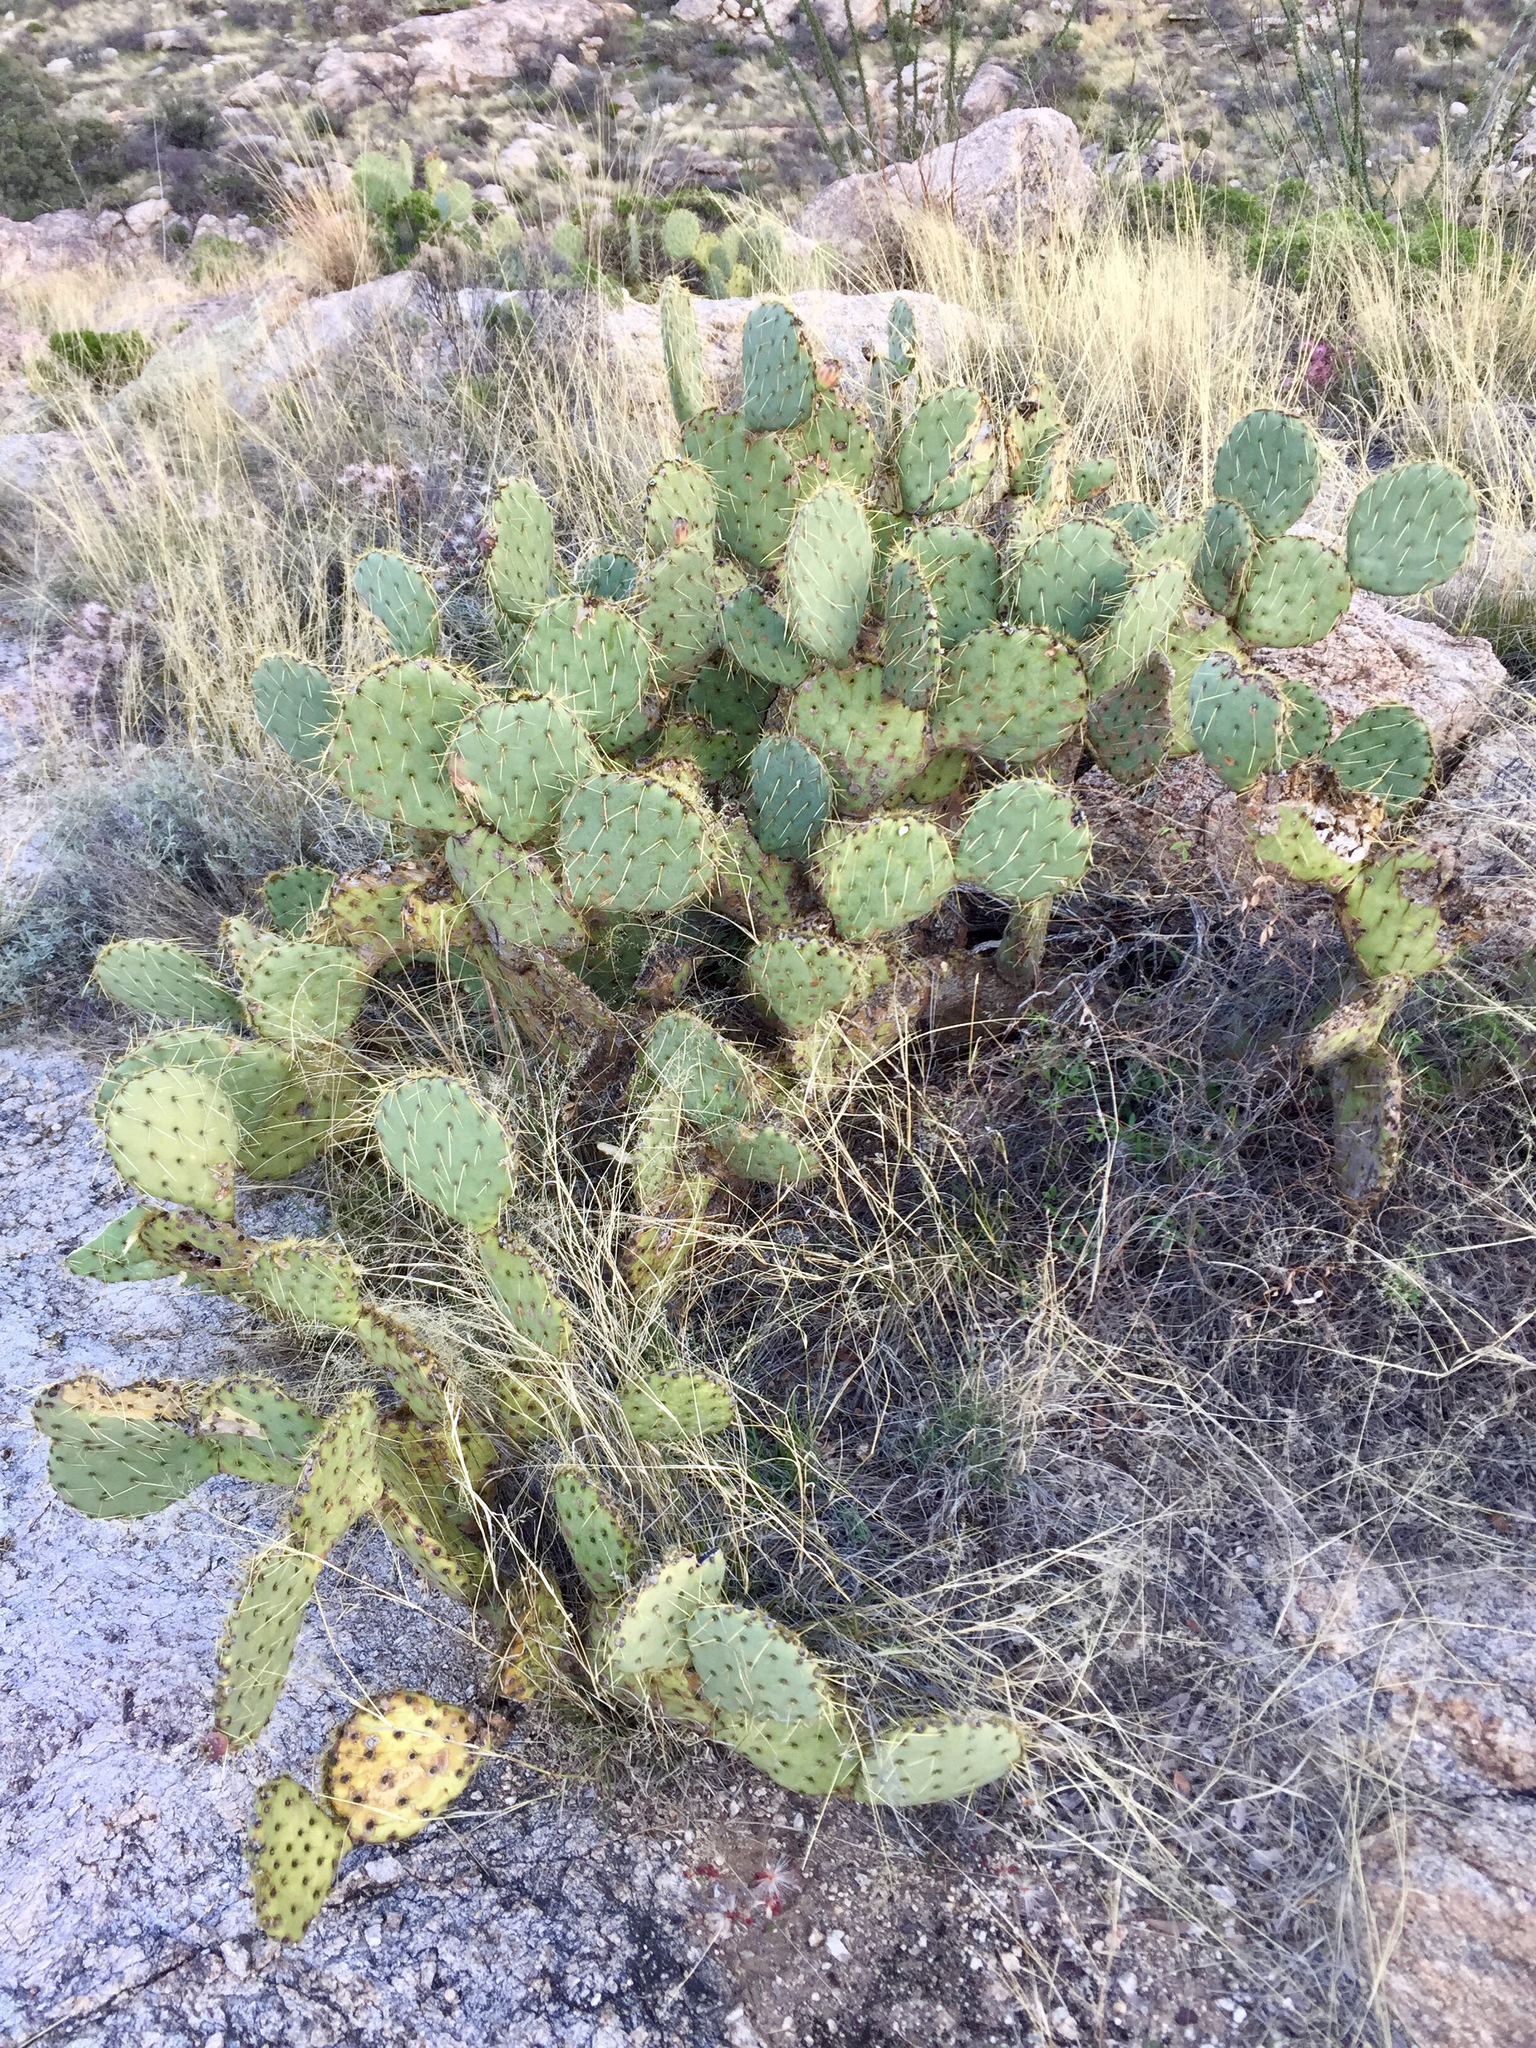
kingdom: Plantae
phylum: Tracheophyta
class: Magnoliopsida
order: Caryophyllales
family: Cactaceae
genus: Opuntia
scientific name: Opuntia engelmannii
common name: Cactus-apple
